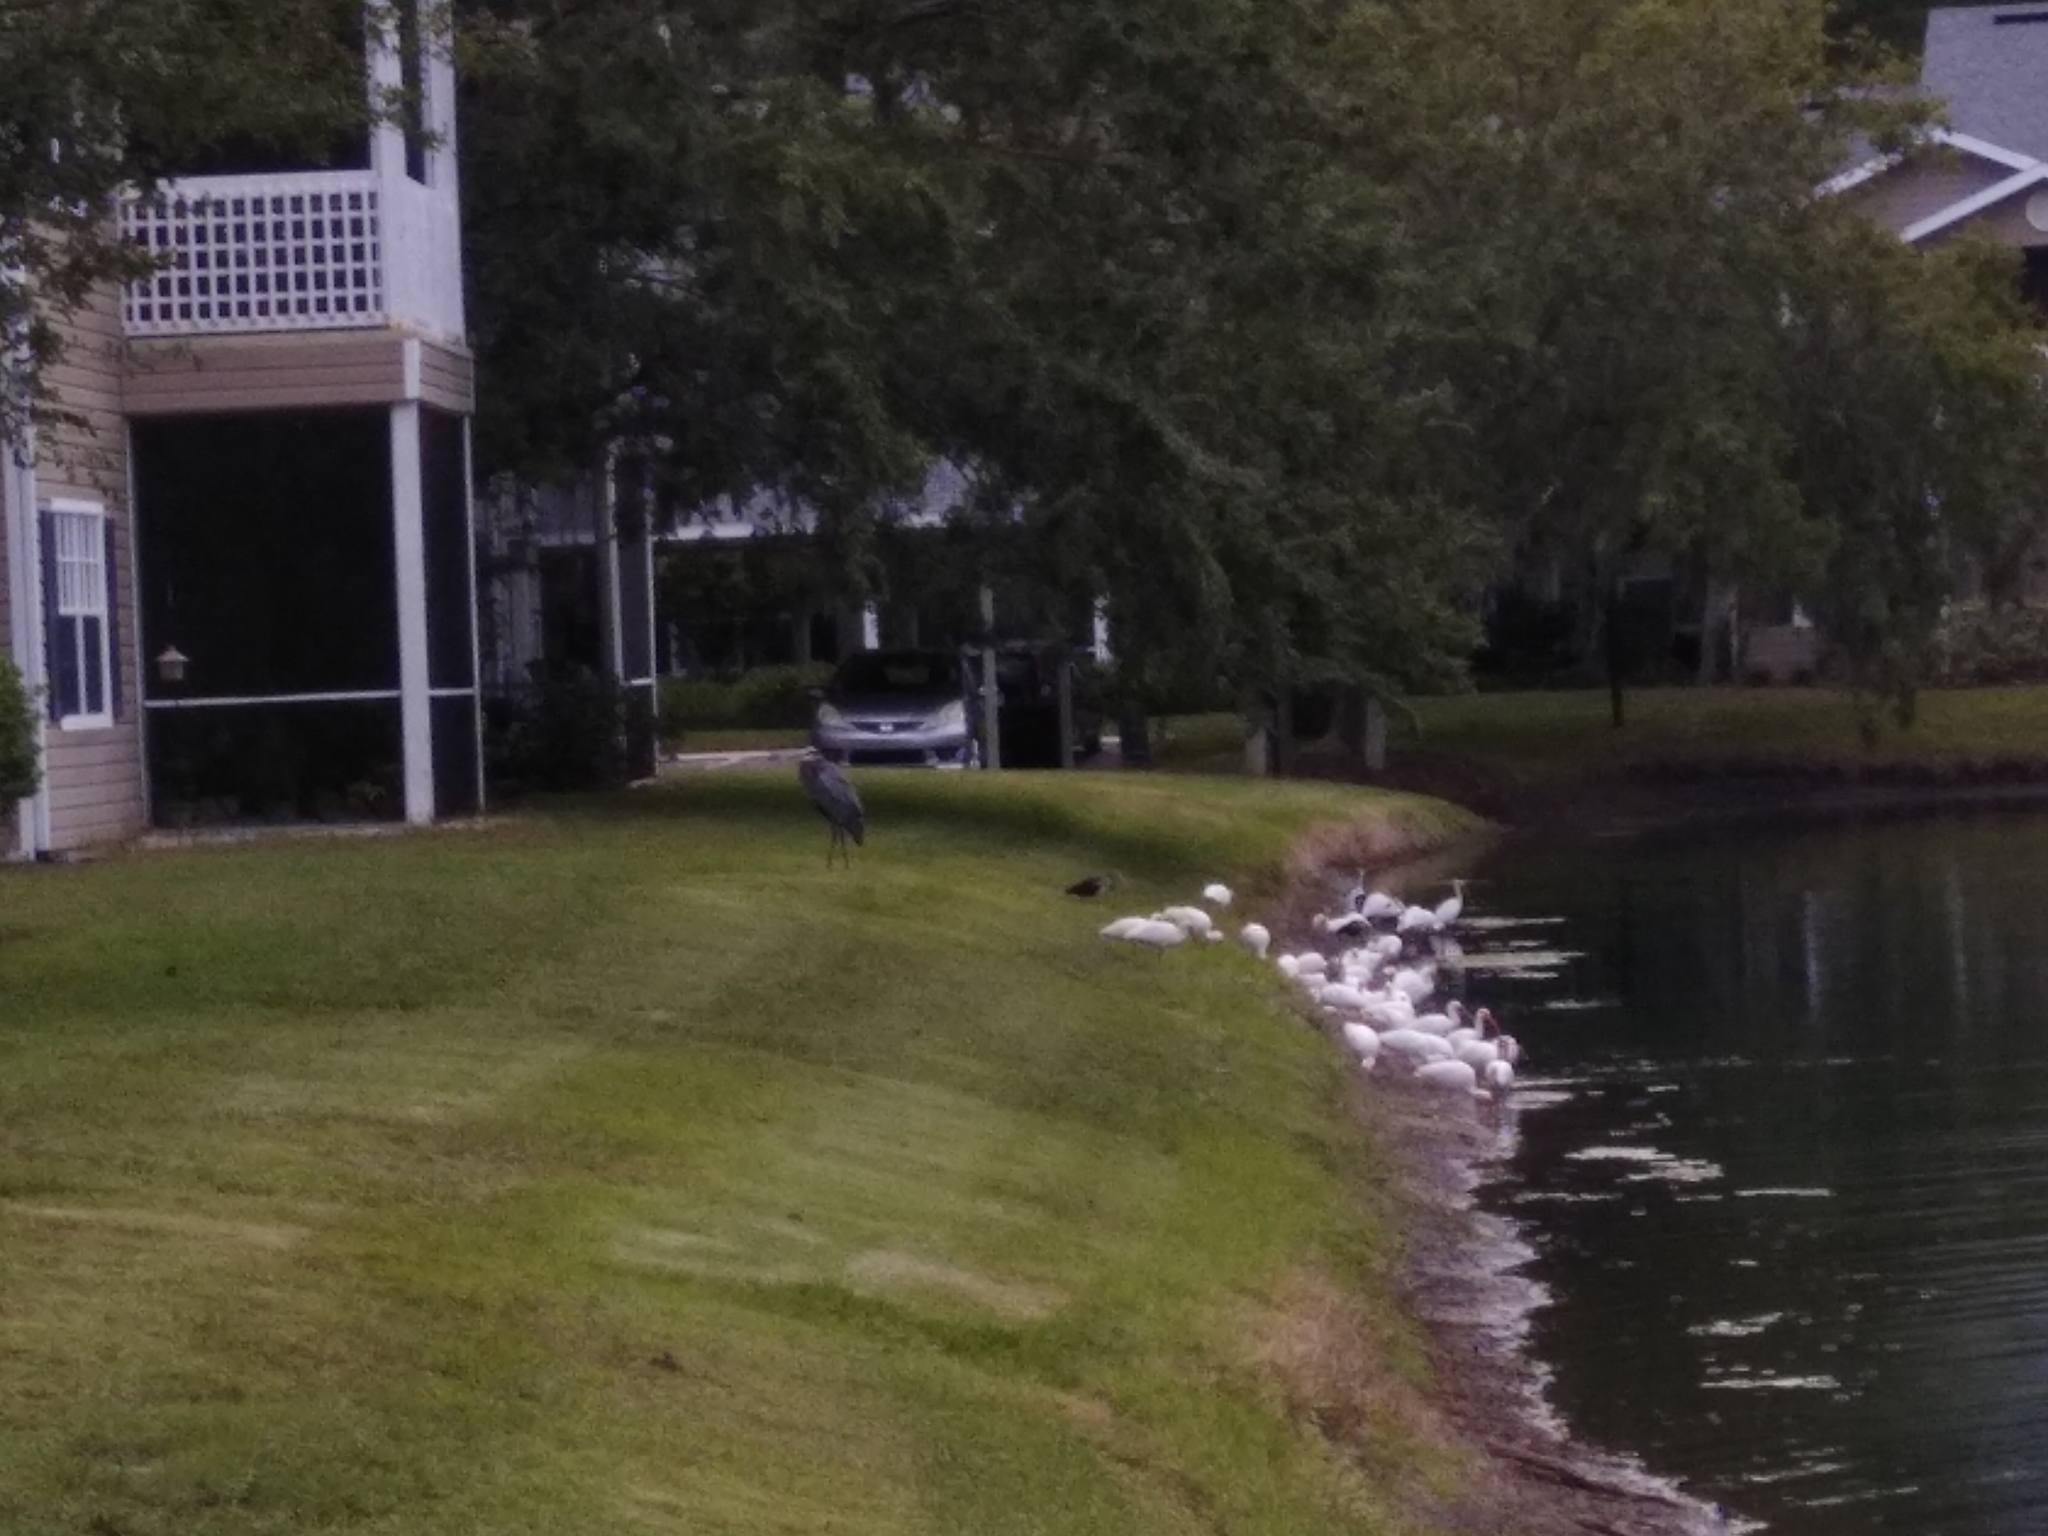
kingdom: Animalia
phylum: Chordata
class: Aves
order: Pelecaniformes
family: Threskiornithidae
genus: Eudocimus
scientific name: Eudocimus albus
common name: White ibis
